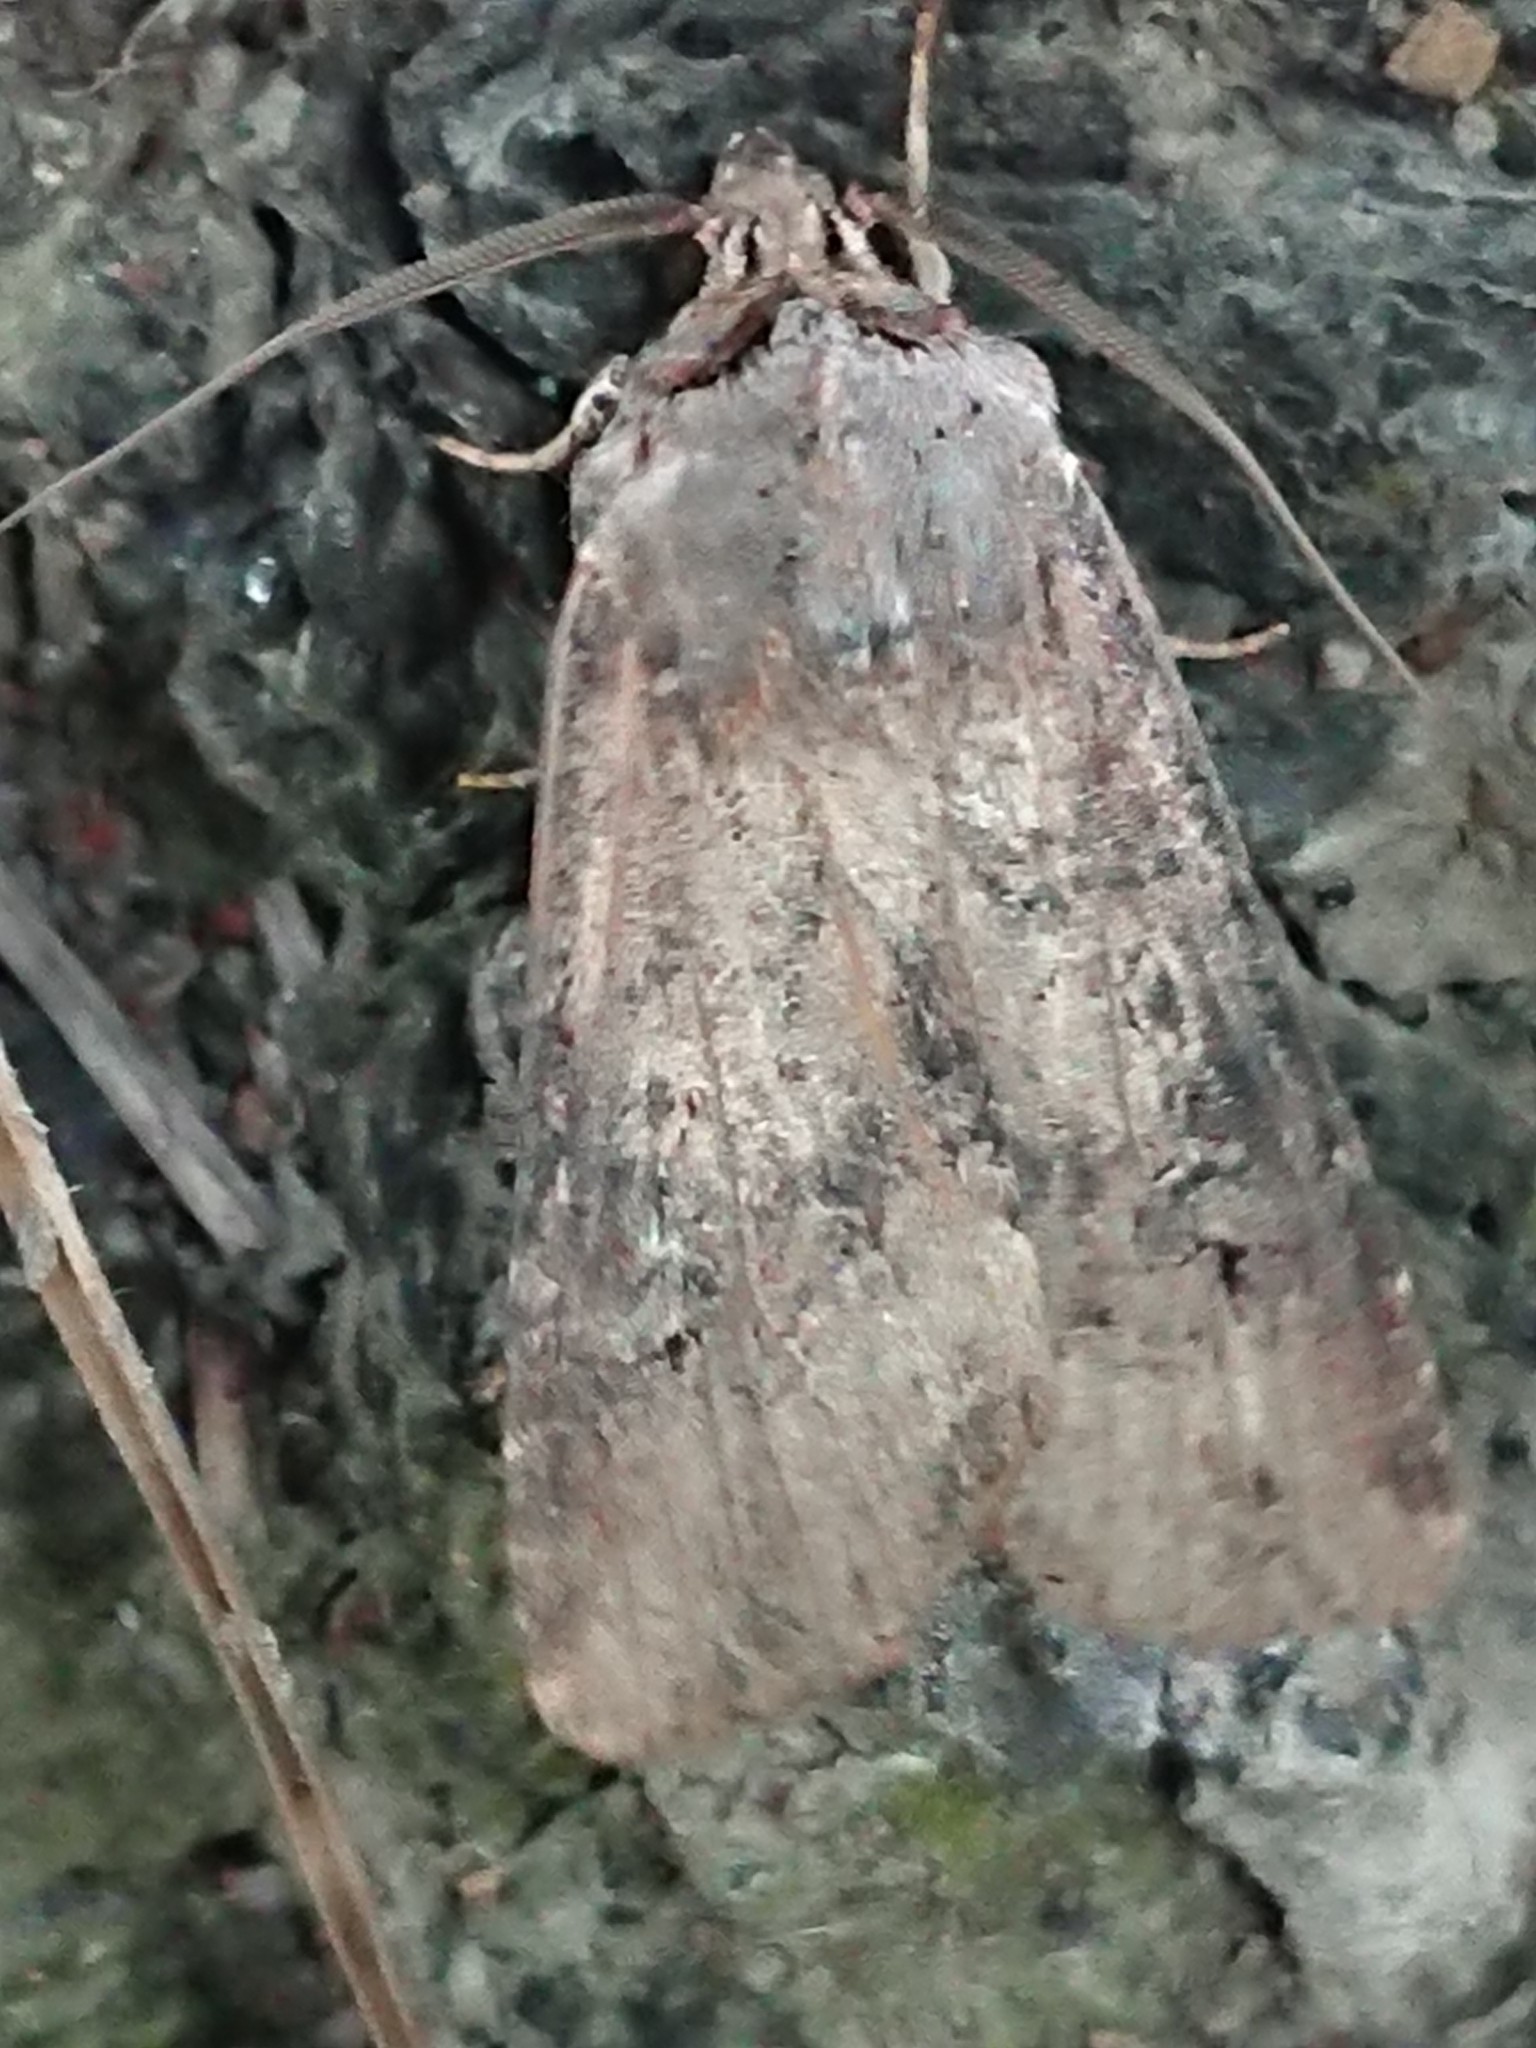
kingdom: Animalia
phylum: Arthropoda
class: Insecta
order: Lepidoptera
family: Noctuidae
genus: Agrotis
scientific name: Agrotis ipsilon
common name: Dark sword-grass
